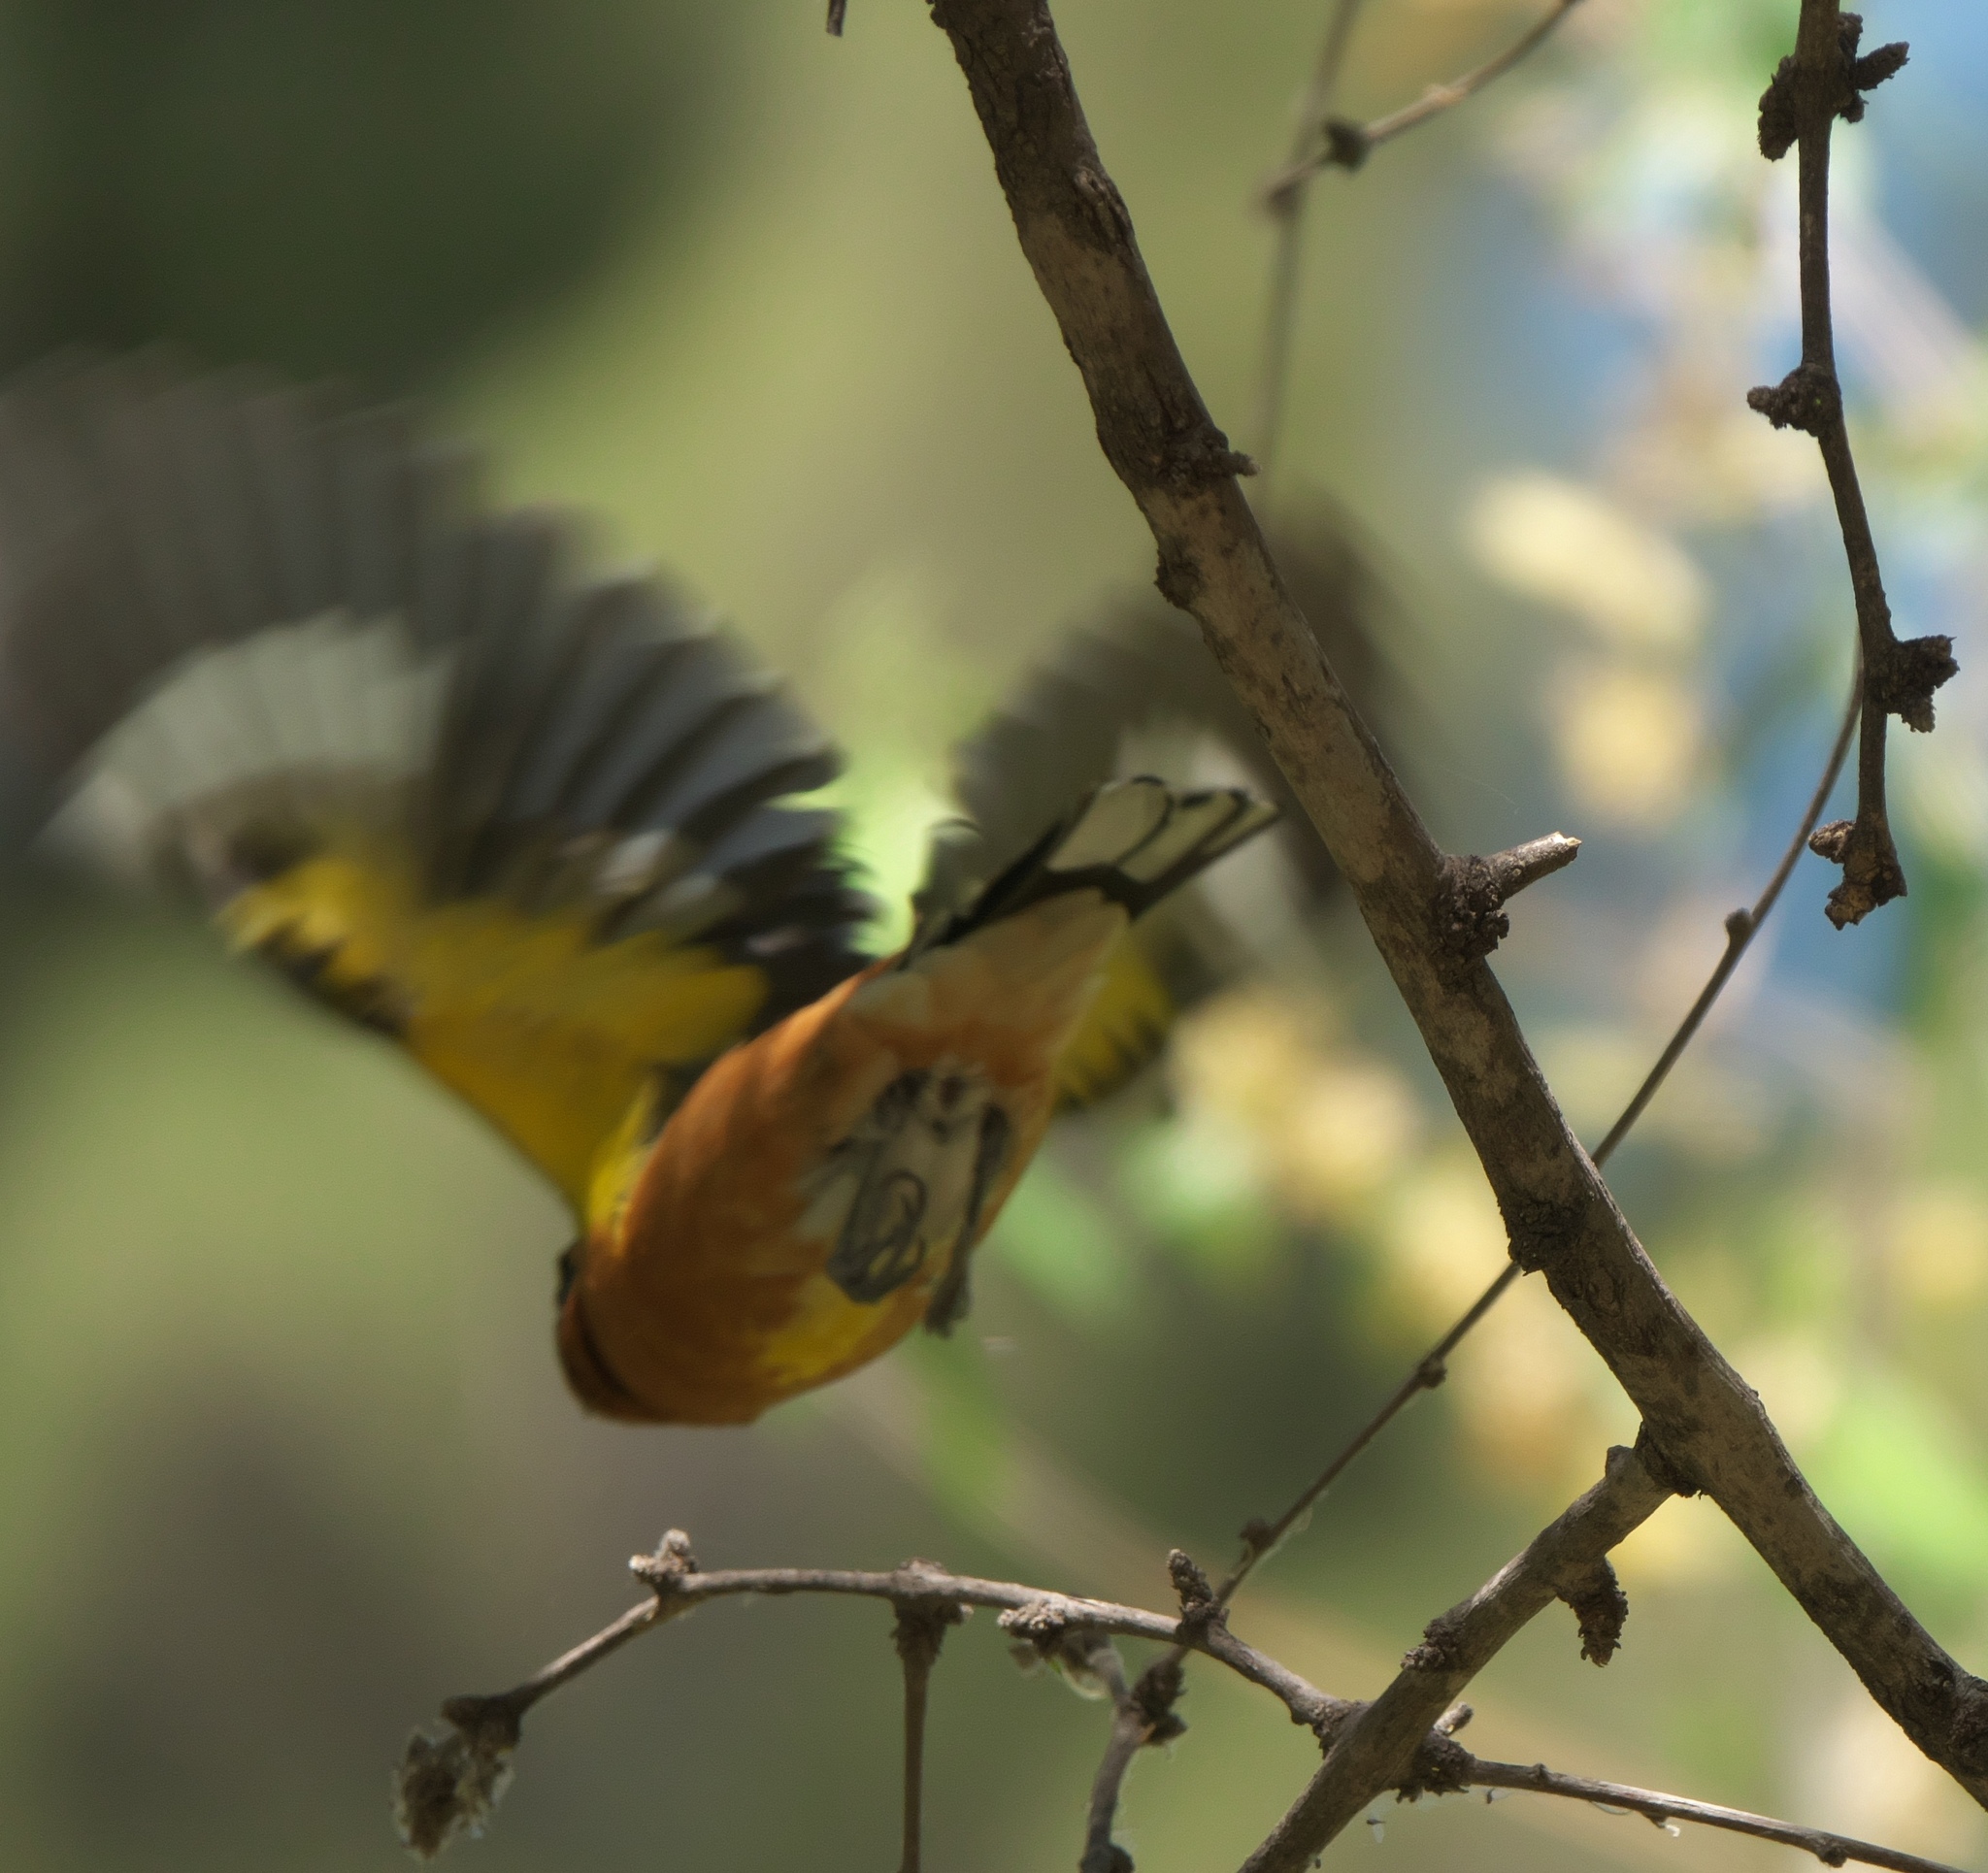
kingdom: Animalia
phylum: Chordata
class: Aves
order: Passeriformes
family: Cardinalidae
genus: Pheucticus
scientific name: Pheucticus melanocephalus
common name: Black-headed grosbeak
